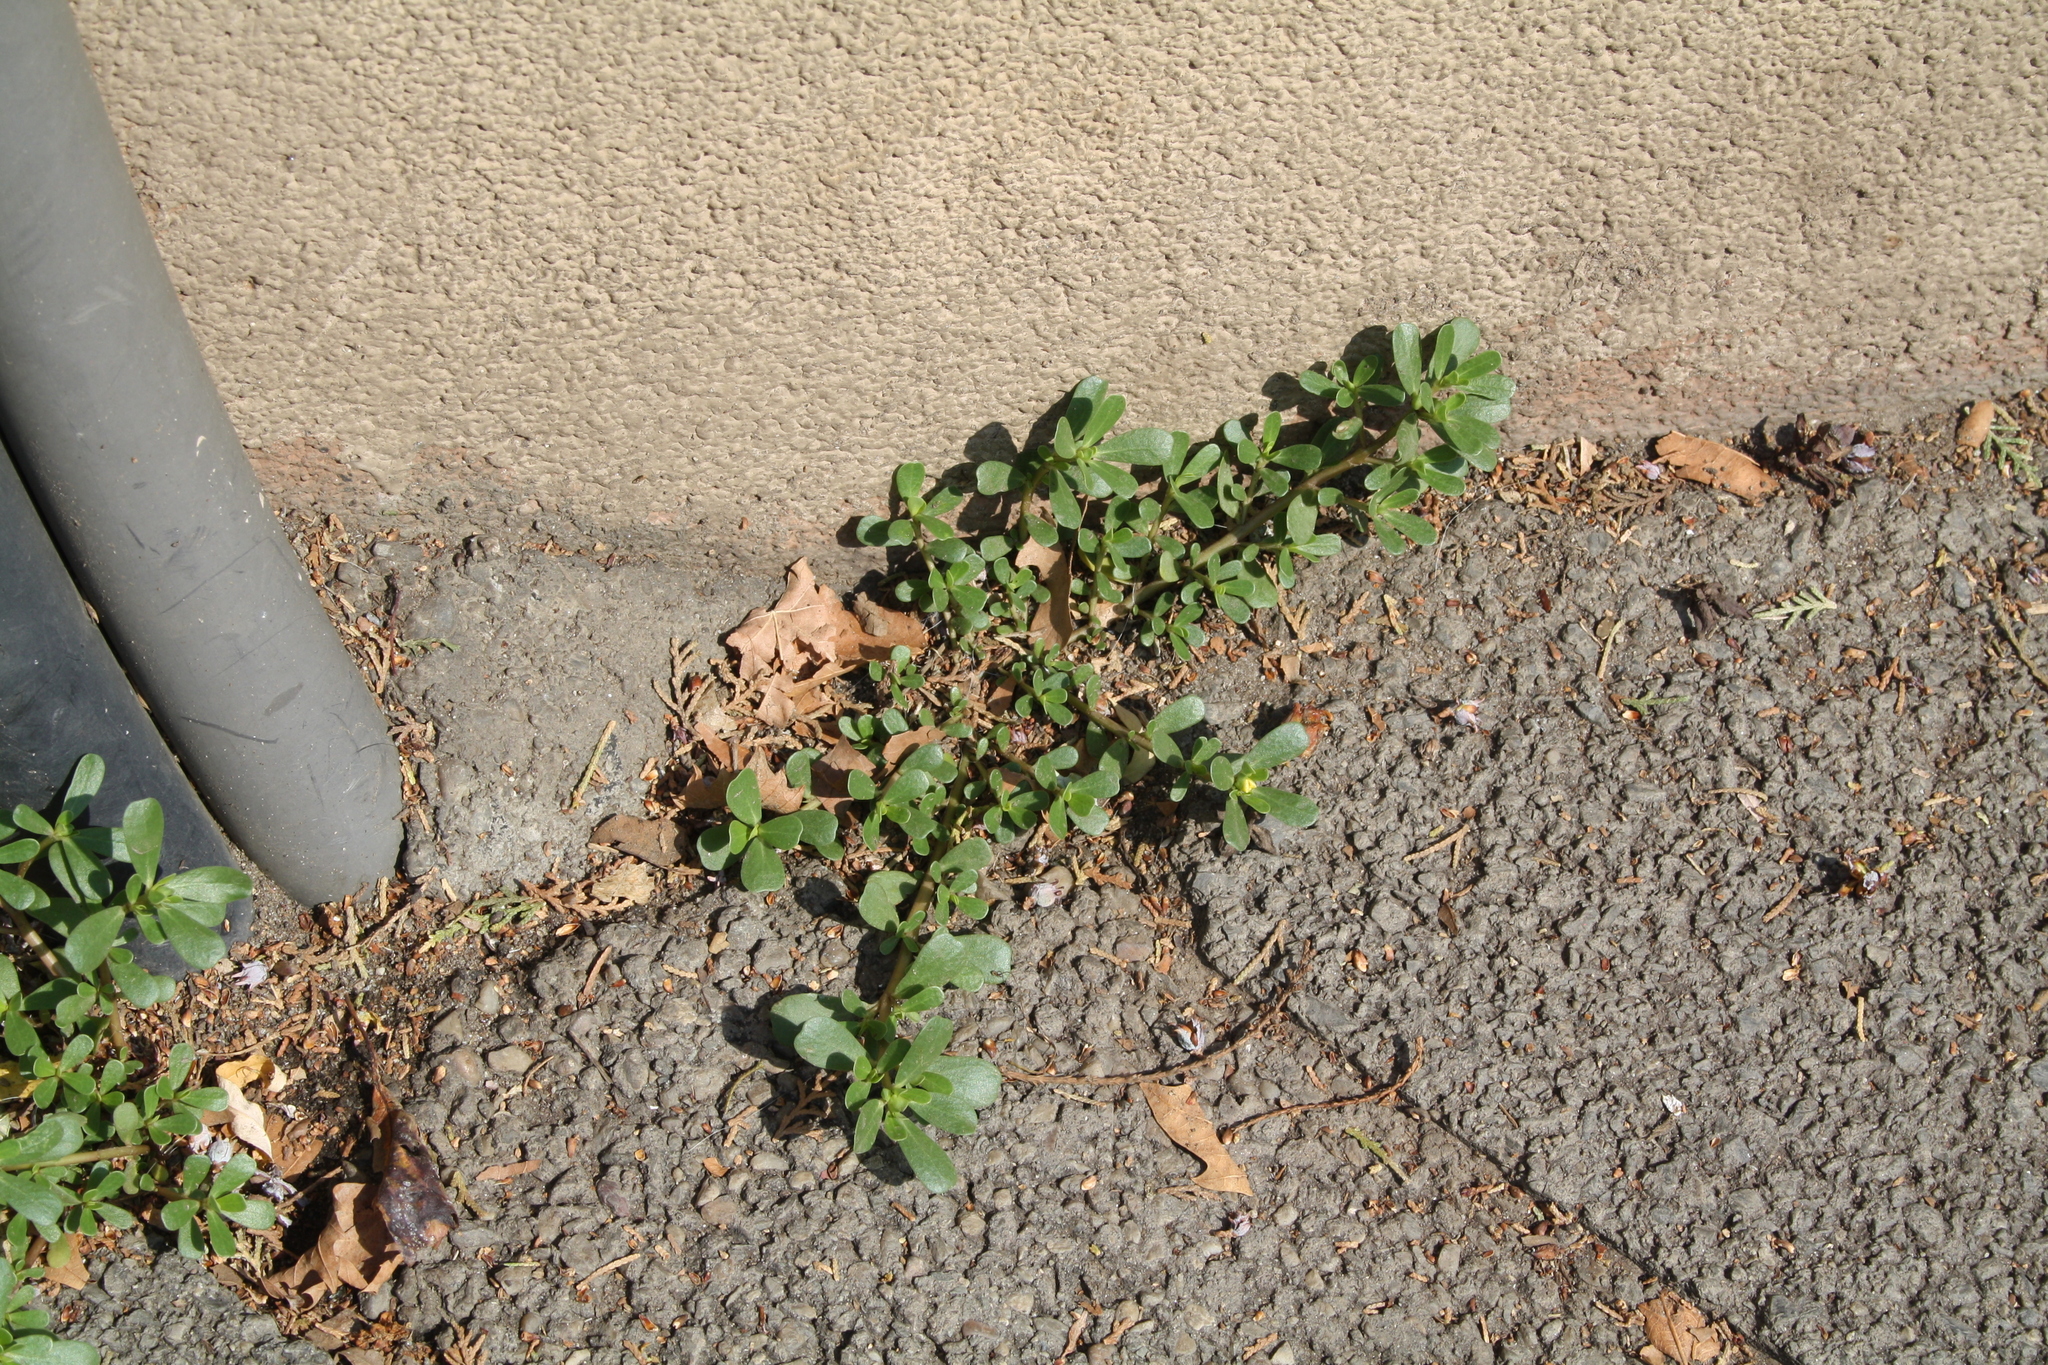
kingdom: Plantae
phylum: Tracheophyta
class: Magnoliopsida
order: Caryophyllales
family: Portulacaceae
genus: Portulaca
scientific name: Portulaca oleracea
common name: Common purslane
